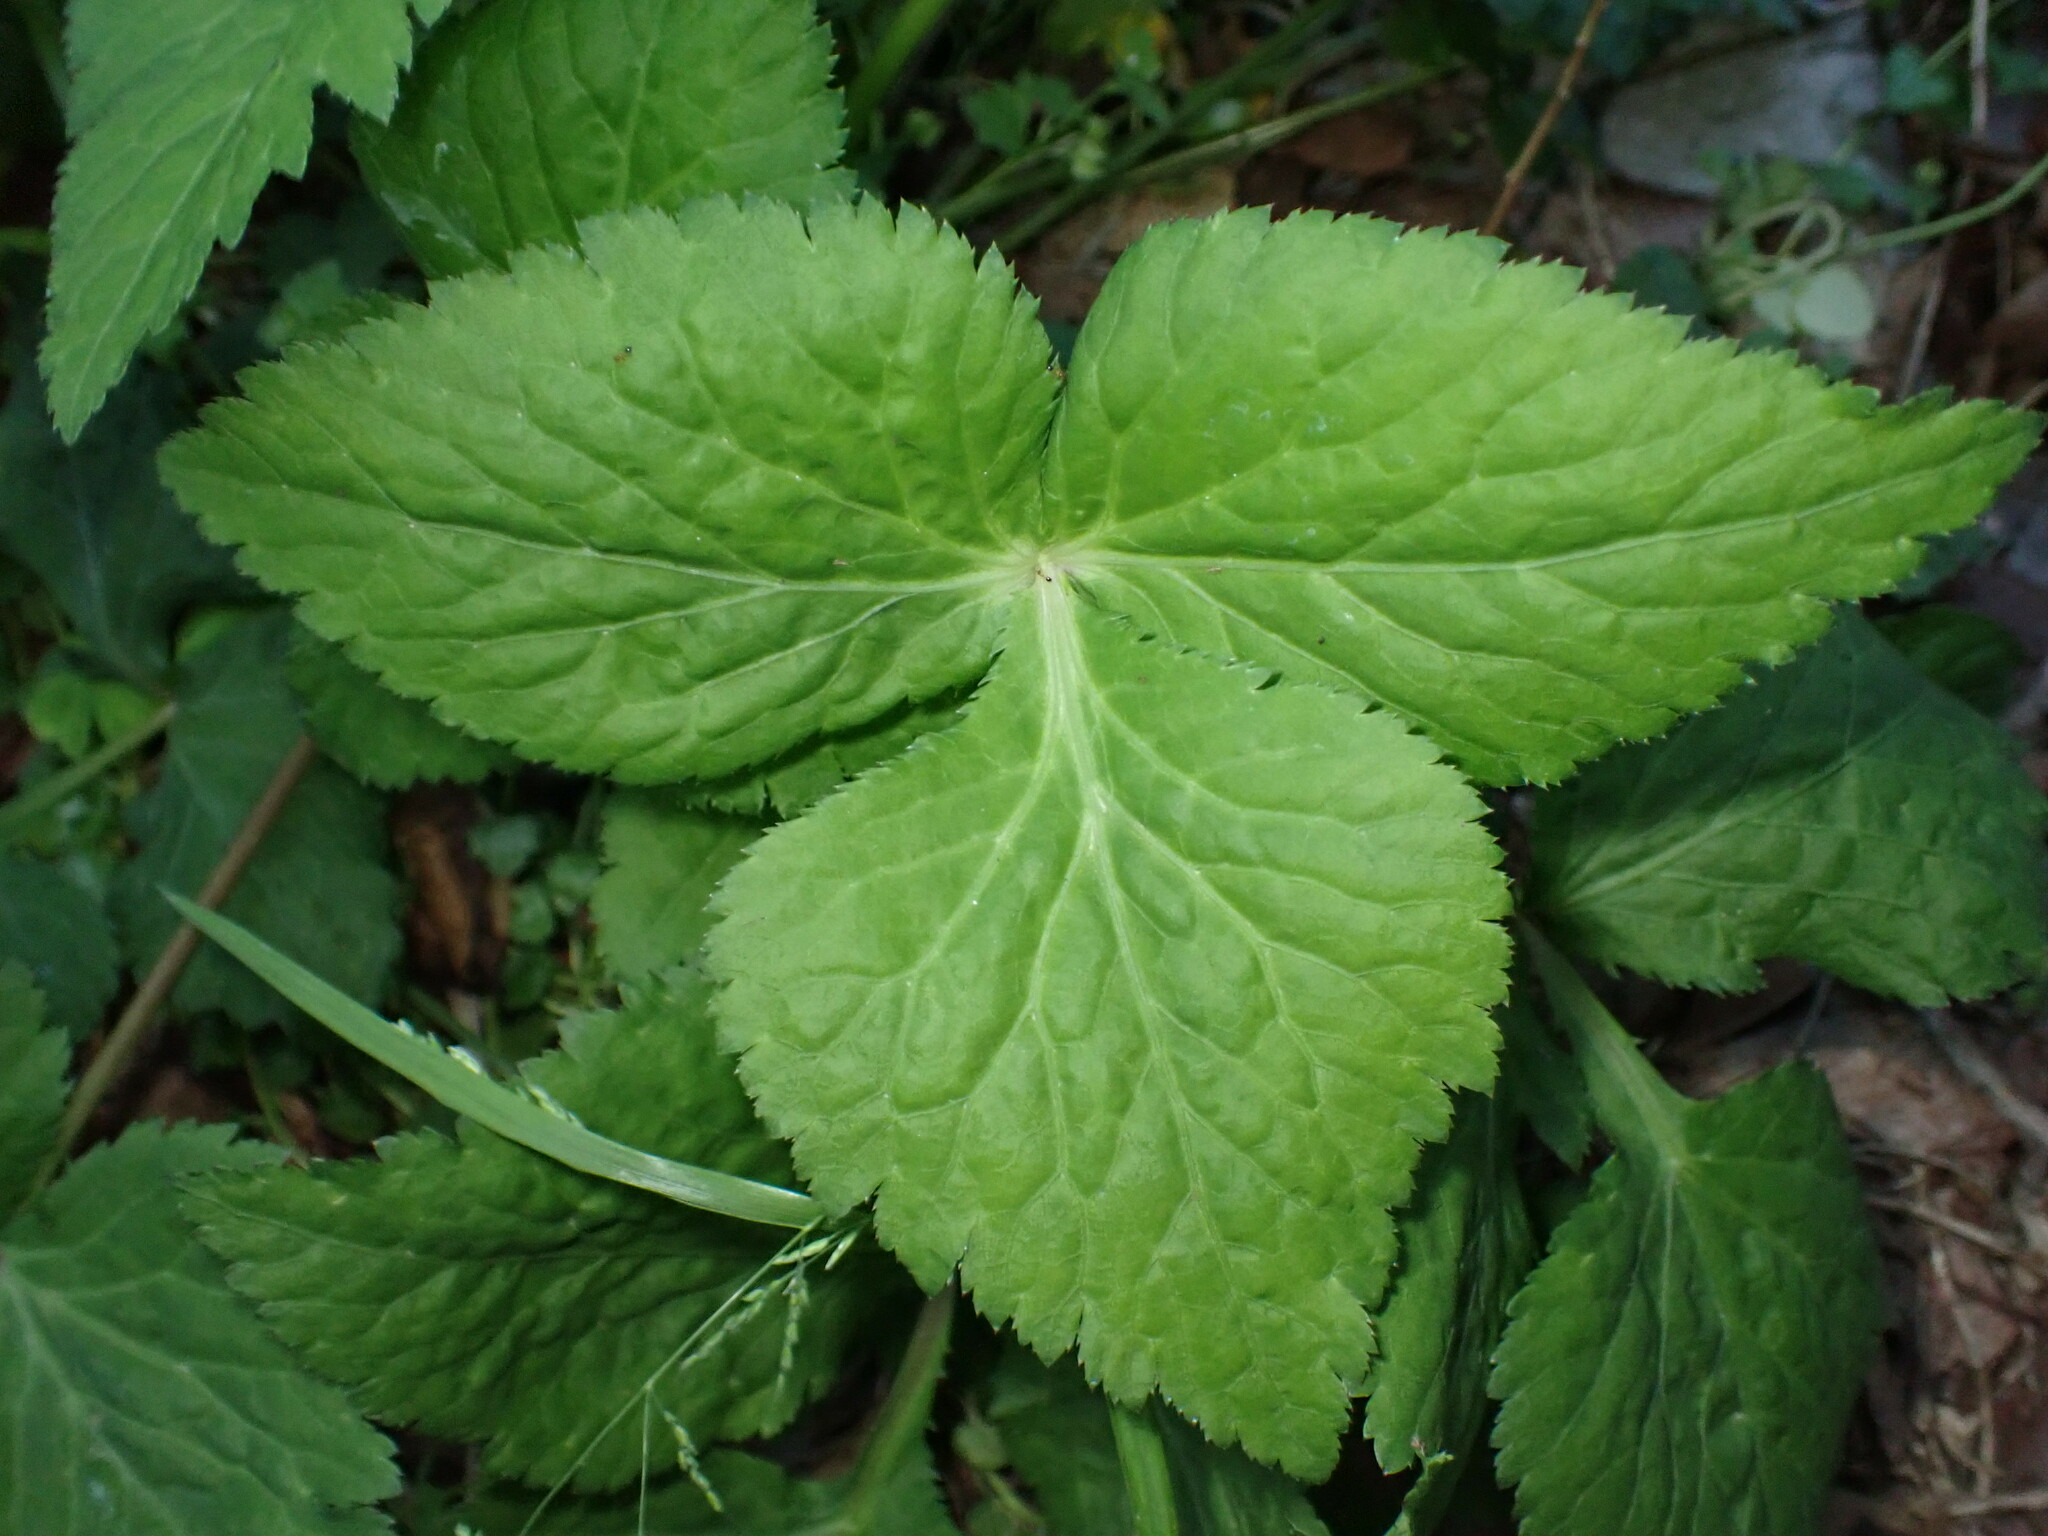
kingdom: Plantae
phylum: Tracheophyta
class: Magnoliopsida
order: Apiales
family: Apiaceae
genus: Cryptotaenia
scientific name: Cryptotaenia japonica
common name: Japanese cryptotaenia
